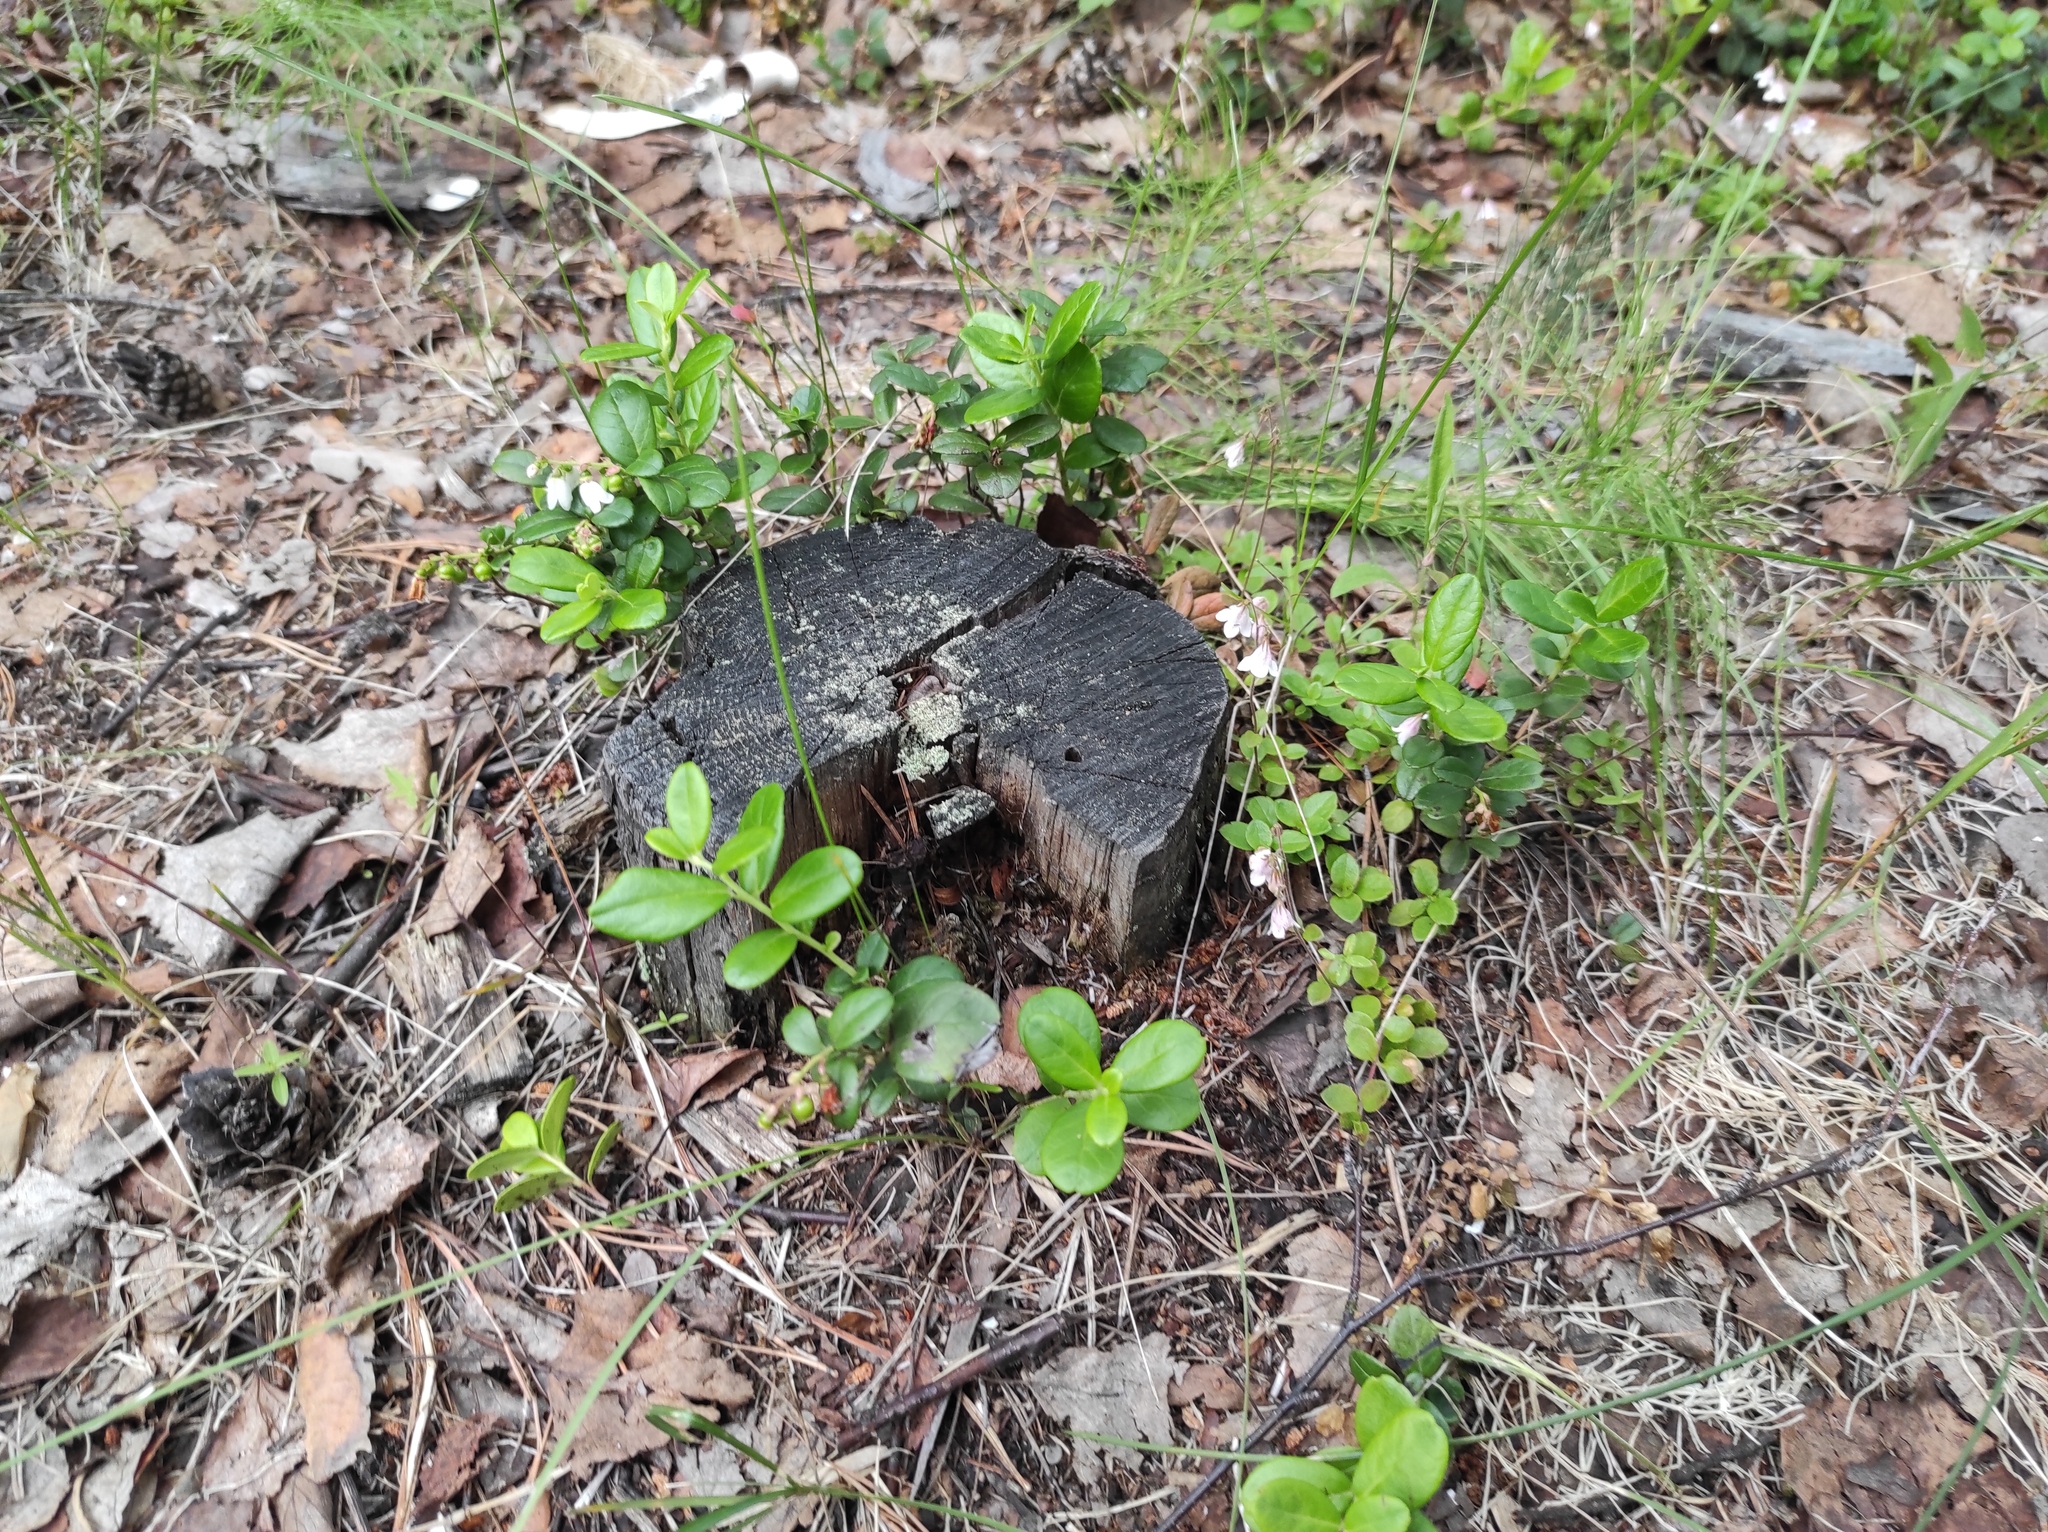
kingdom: Plantae
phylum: Tracheophyta
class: Magnoliopsida
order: Dipsacales
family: Caprifoliaceae
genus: Linnaea
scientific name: Linnaea borealis
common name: Twinflower
